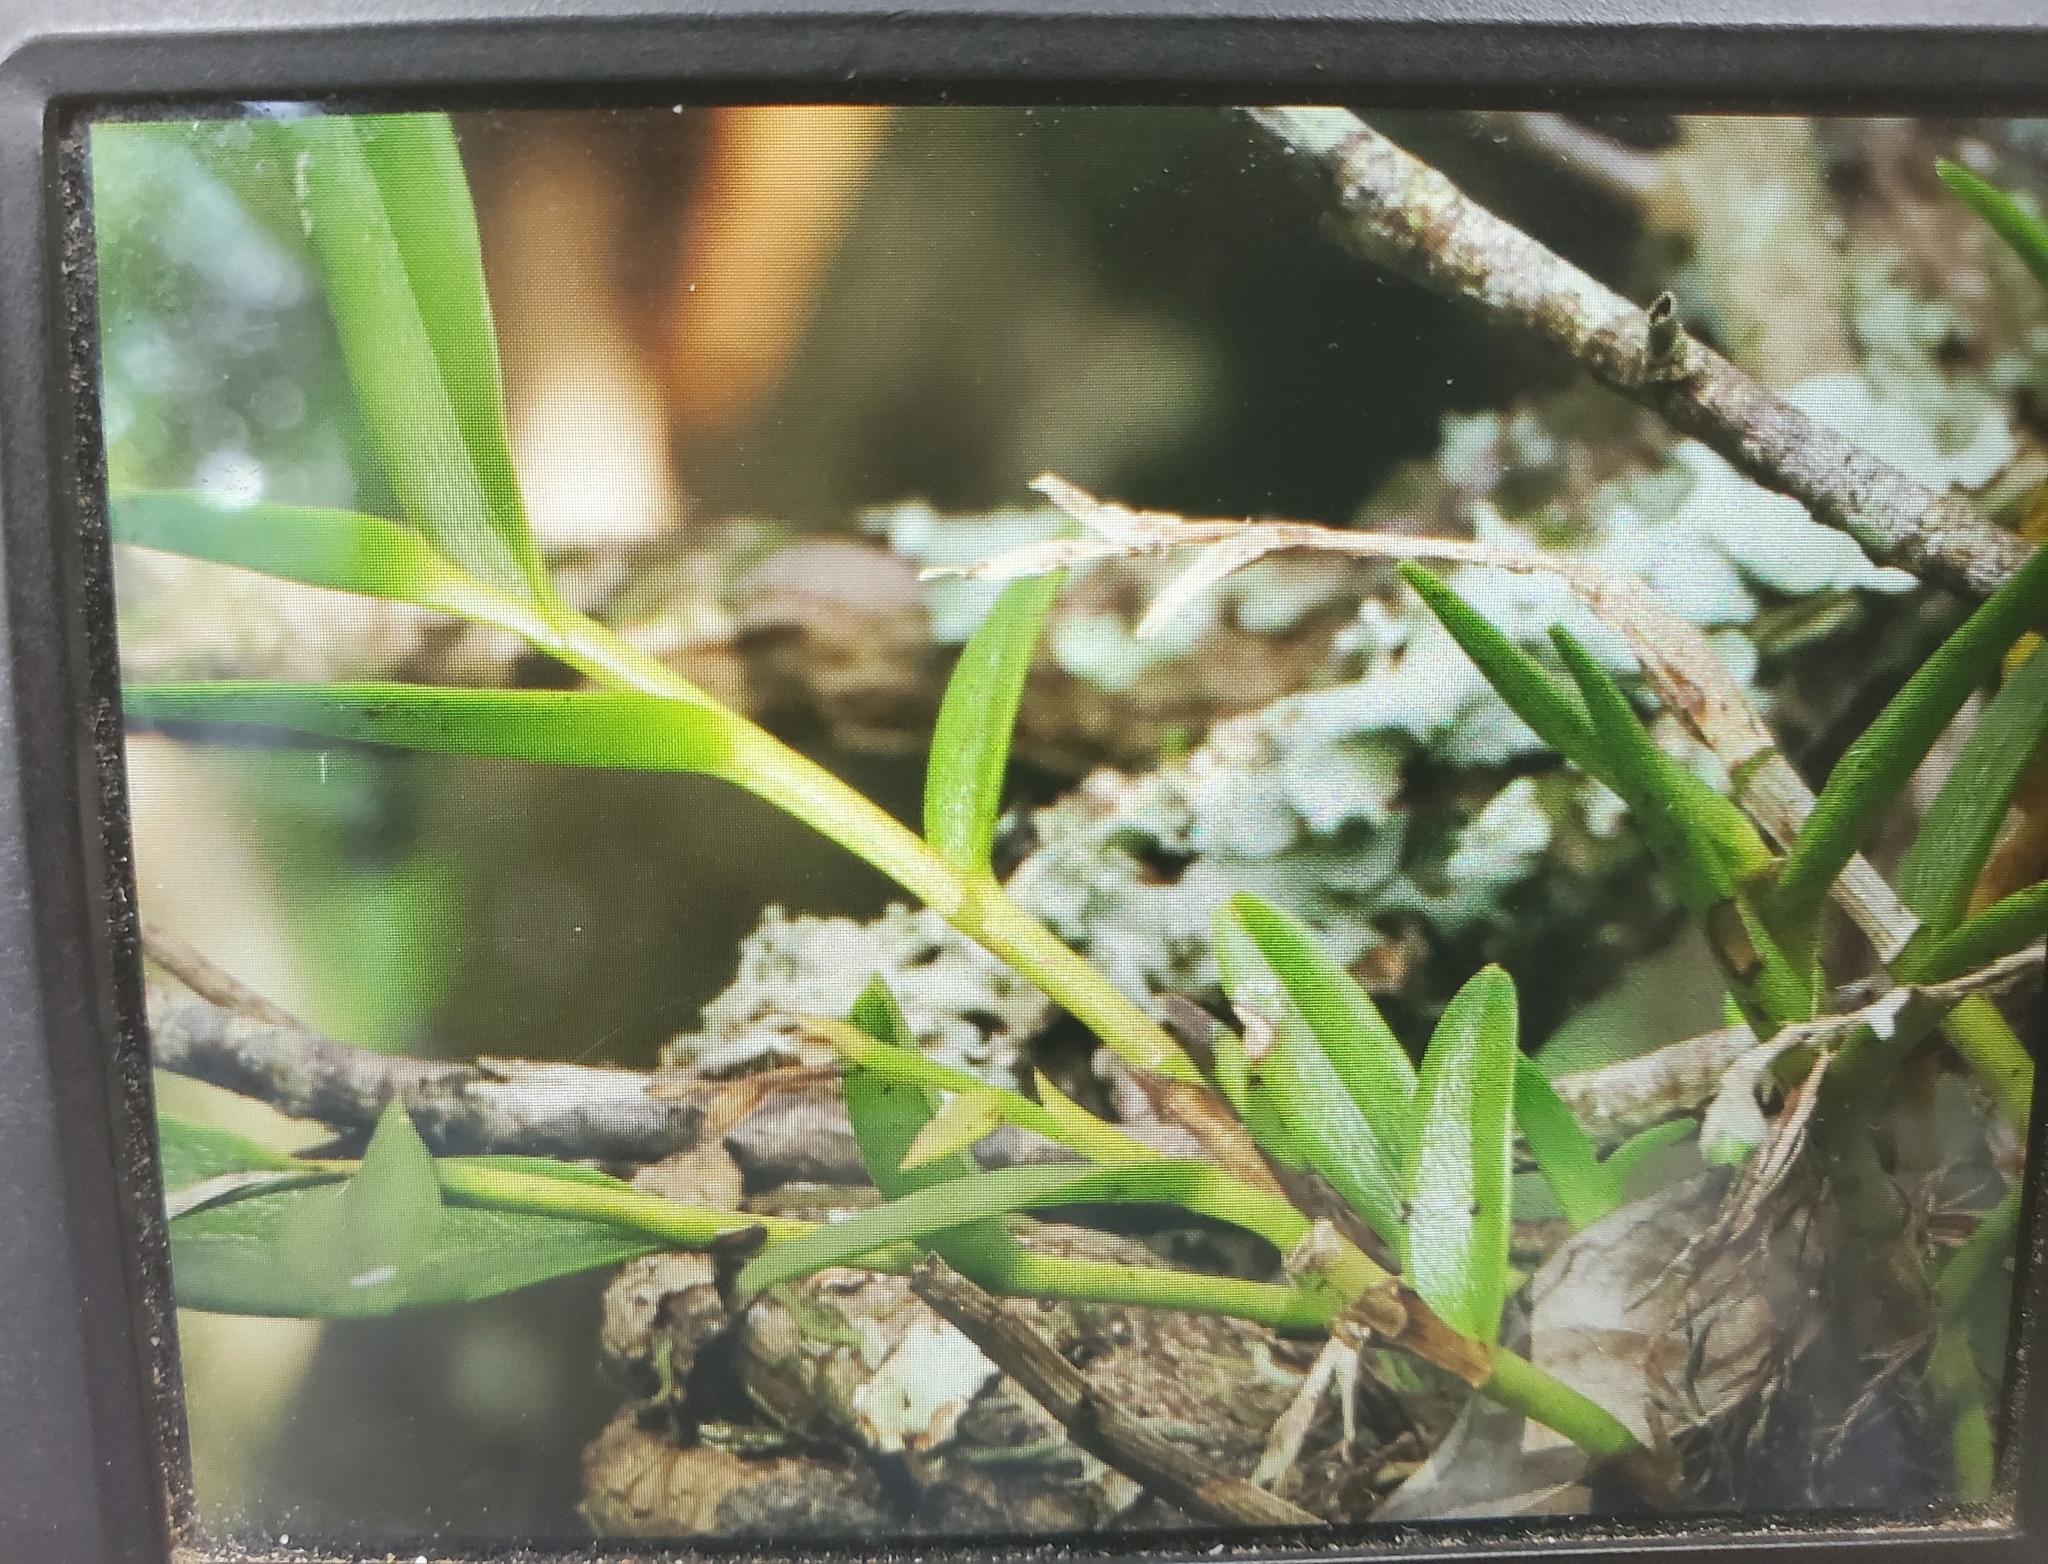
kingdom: Plantae
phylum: Tracheophyta
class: Liliopsida
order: Asparagales
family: Orchidaceae
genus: Epidendrum
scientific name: Epidendrum rigidum
